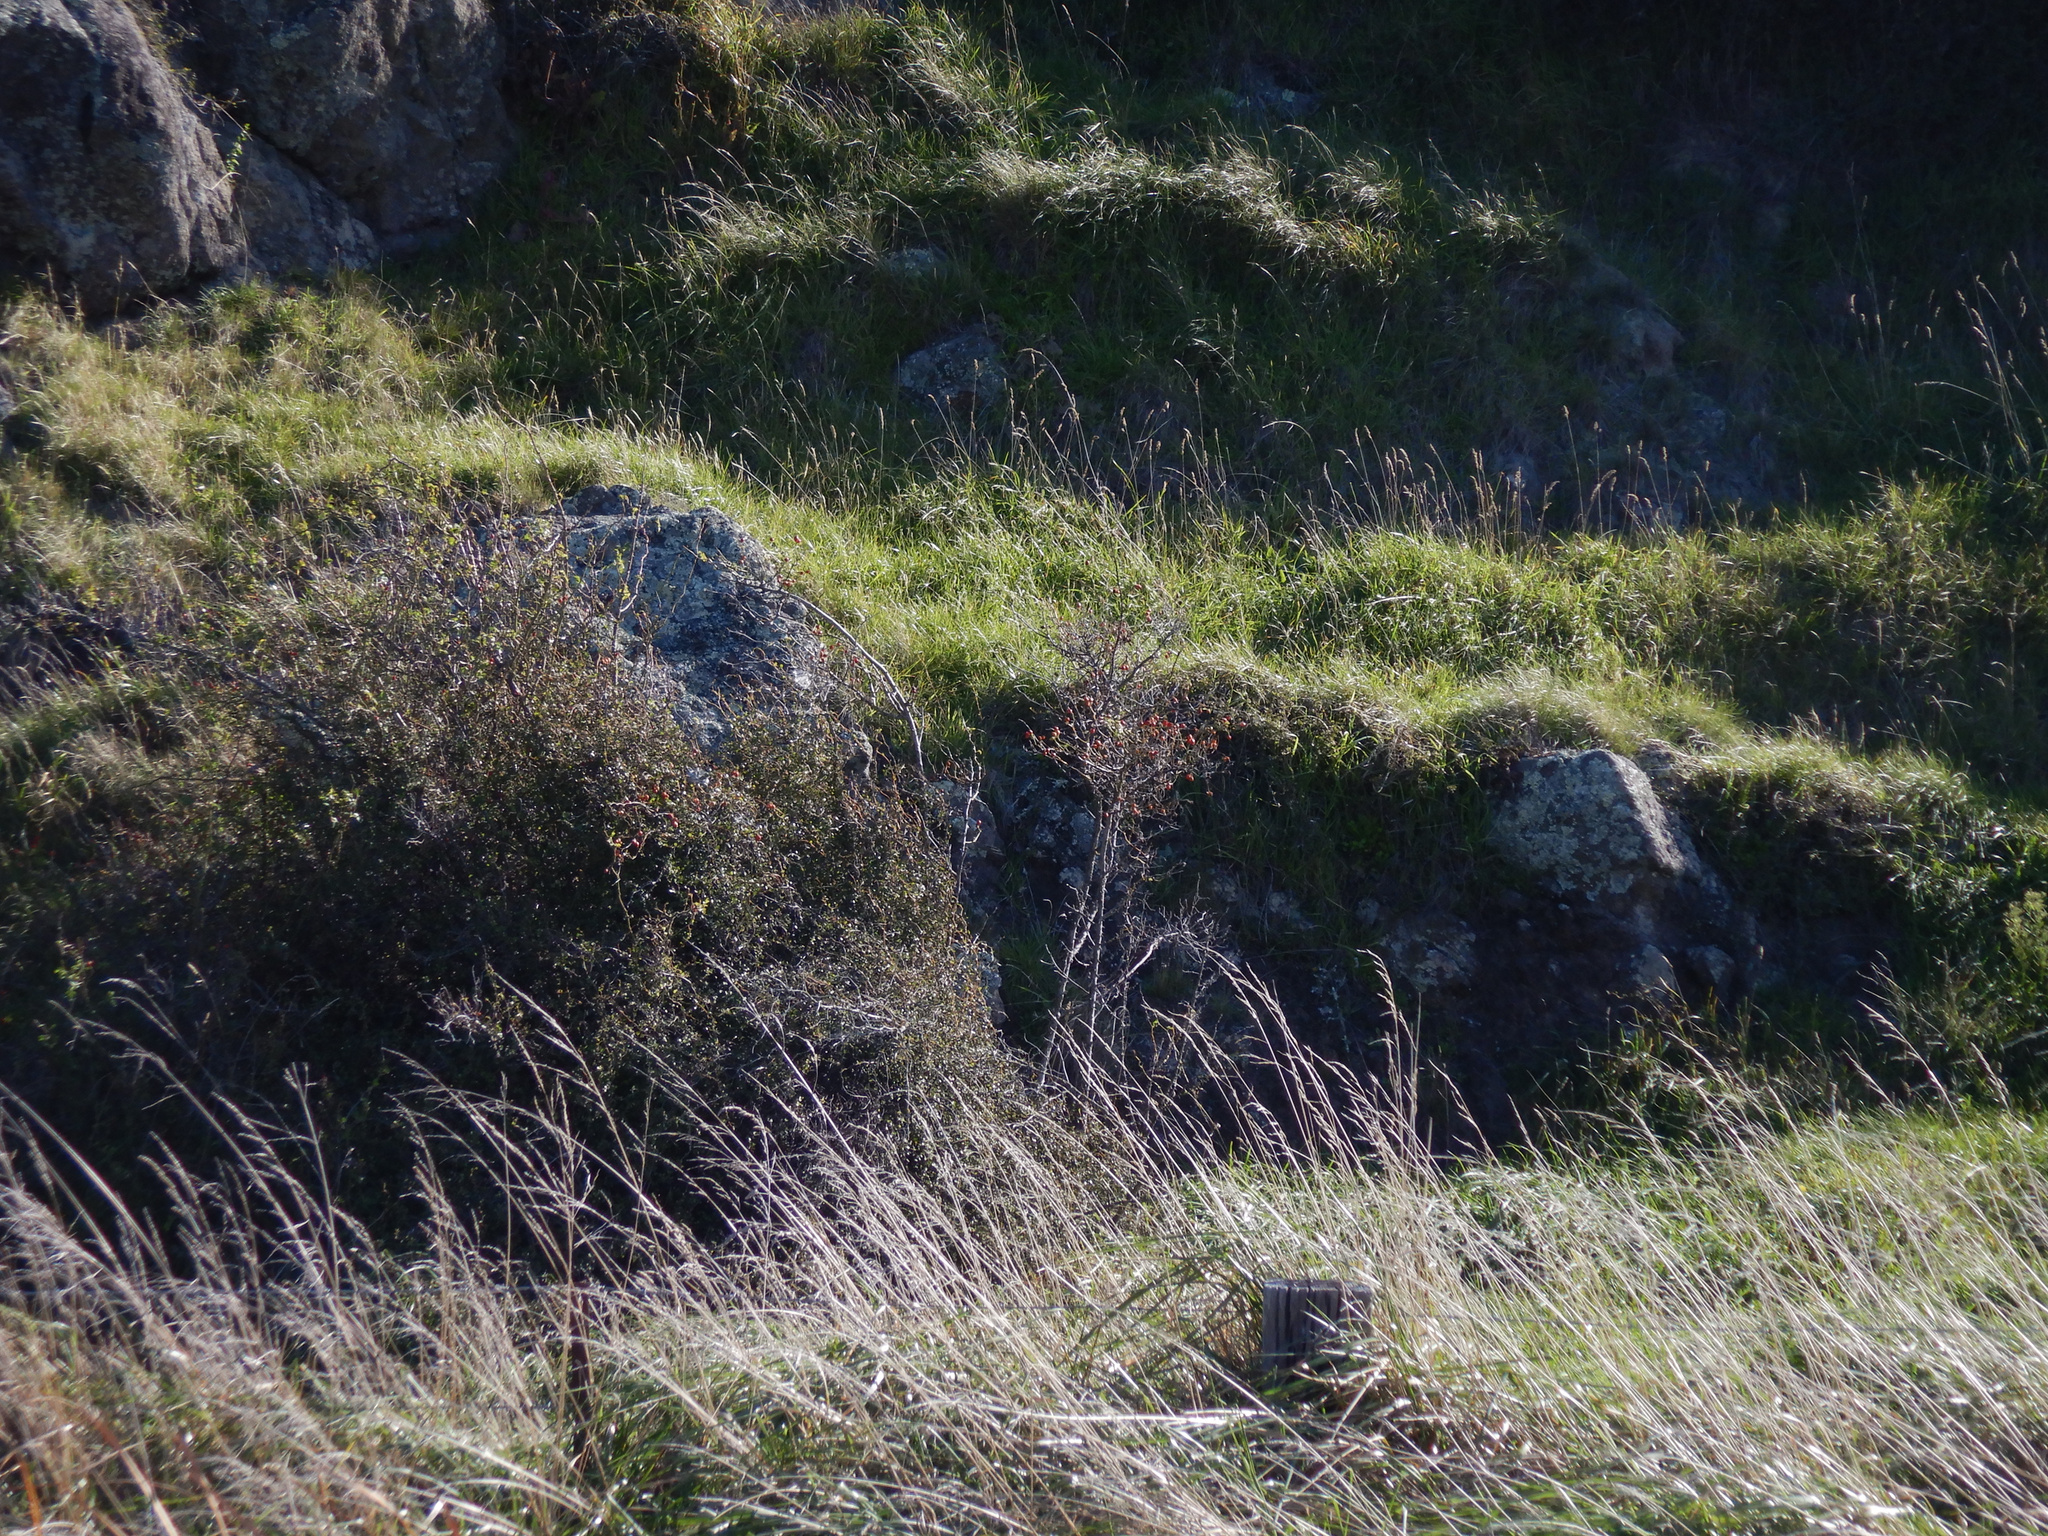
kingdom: Plantae
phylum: Tracheophyta
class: Magnoliopsida
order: Caryophyllales
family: Polygonaceae
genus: Muehlenbeckia
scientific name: Muehlenbeckia complexa
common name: Wireplant
